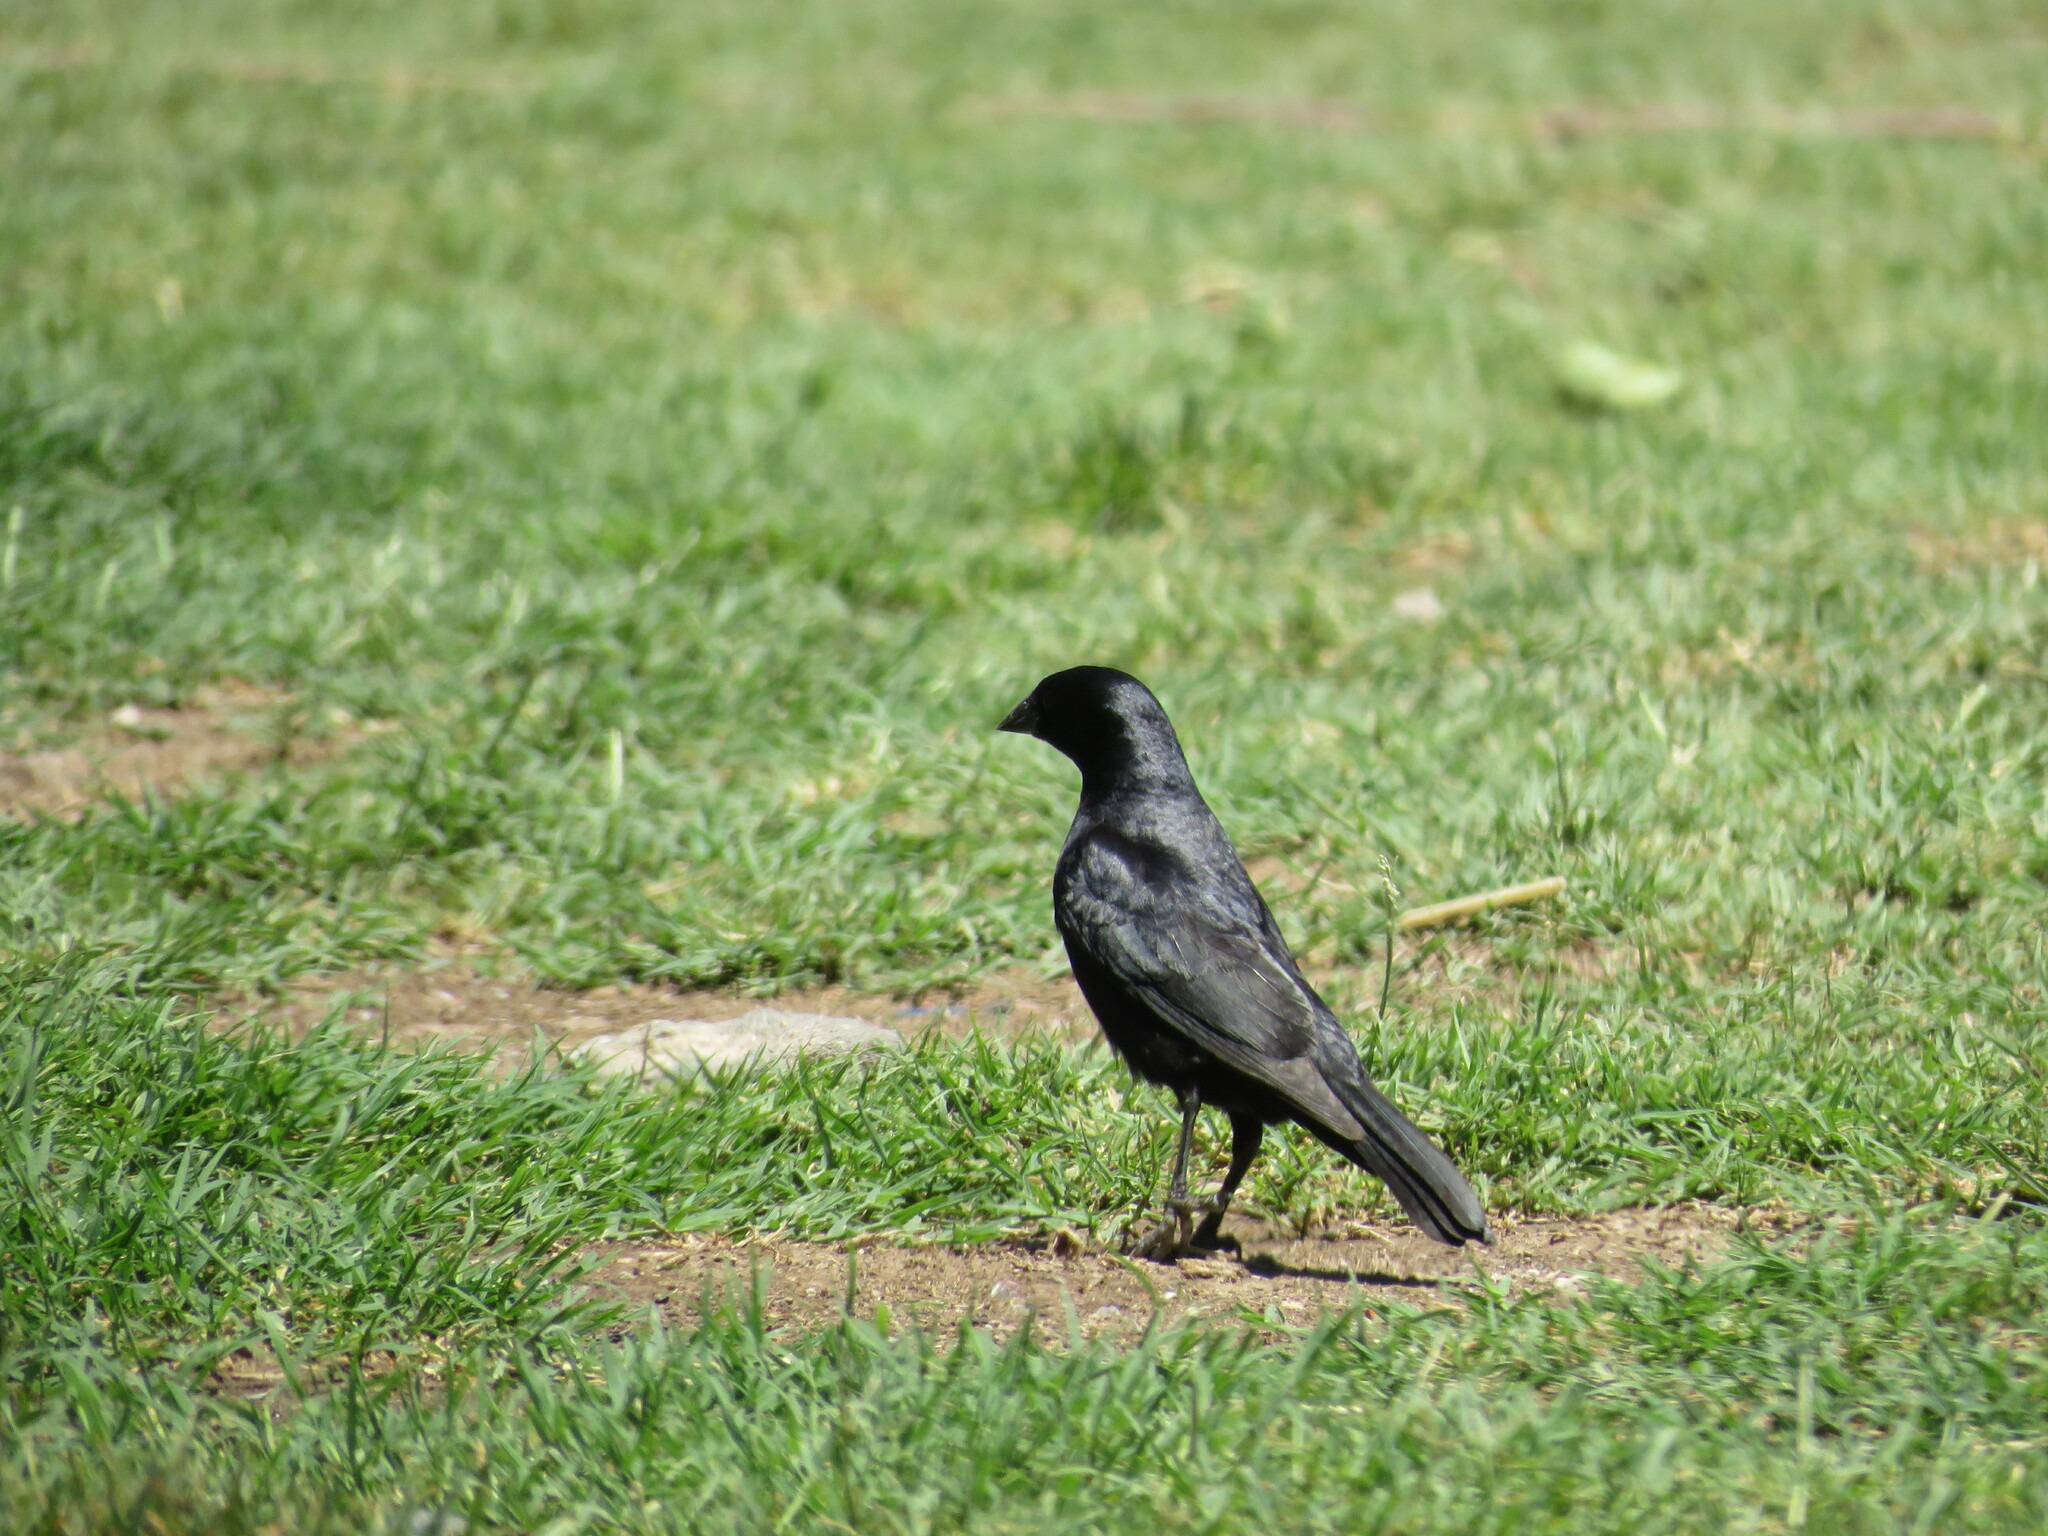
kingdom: Animalia
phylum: Chordata
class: Aves
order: Passeriformes
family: Icteridae
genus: Molothrus
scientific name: Molothrus rufoaxillaris
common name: Screaming cowbird
